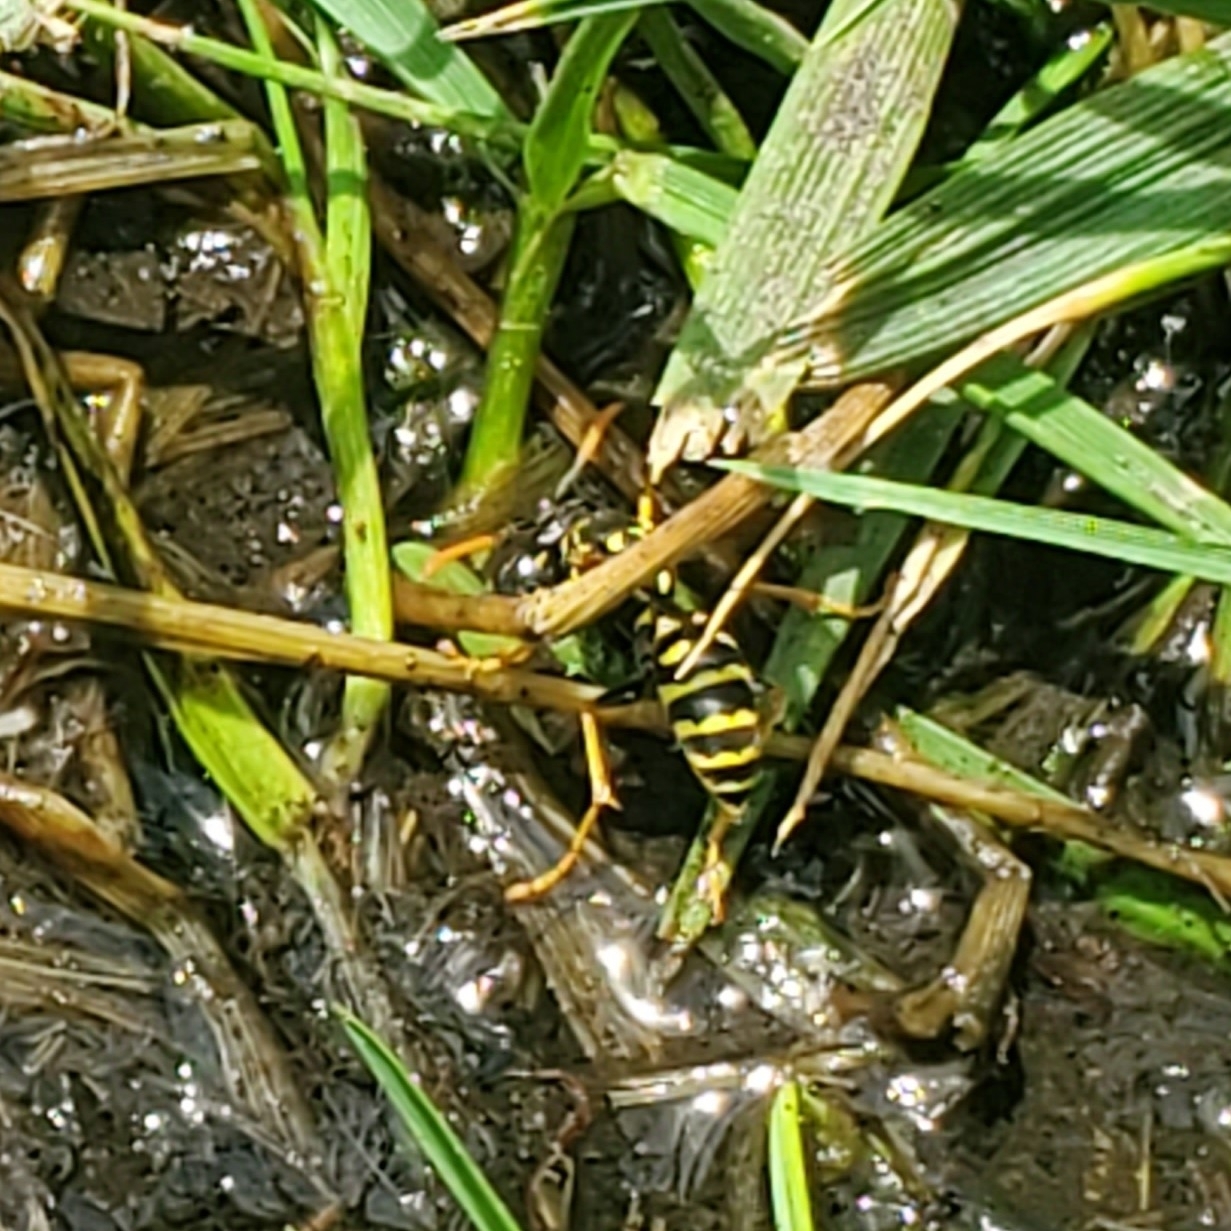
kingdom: Animalia
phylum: Arthropoda
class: Insecta
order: Hymenoptera
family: Eumenidae
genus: Polistes
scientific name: Polistes dominula
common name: Paper wasp
